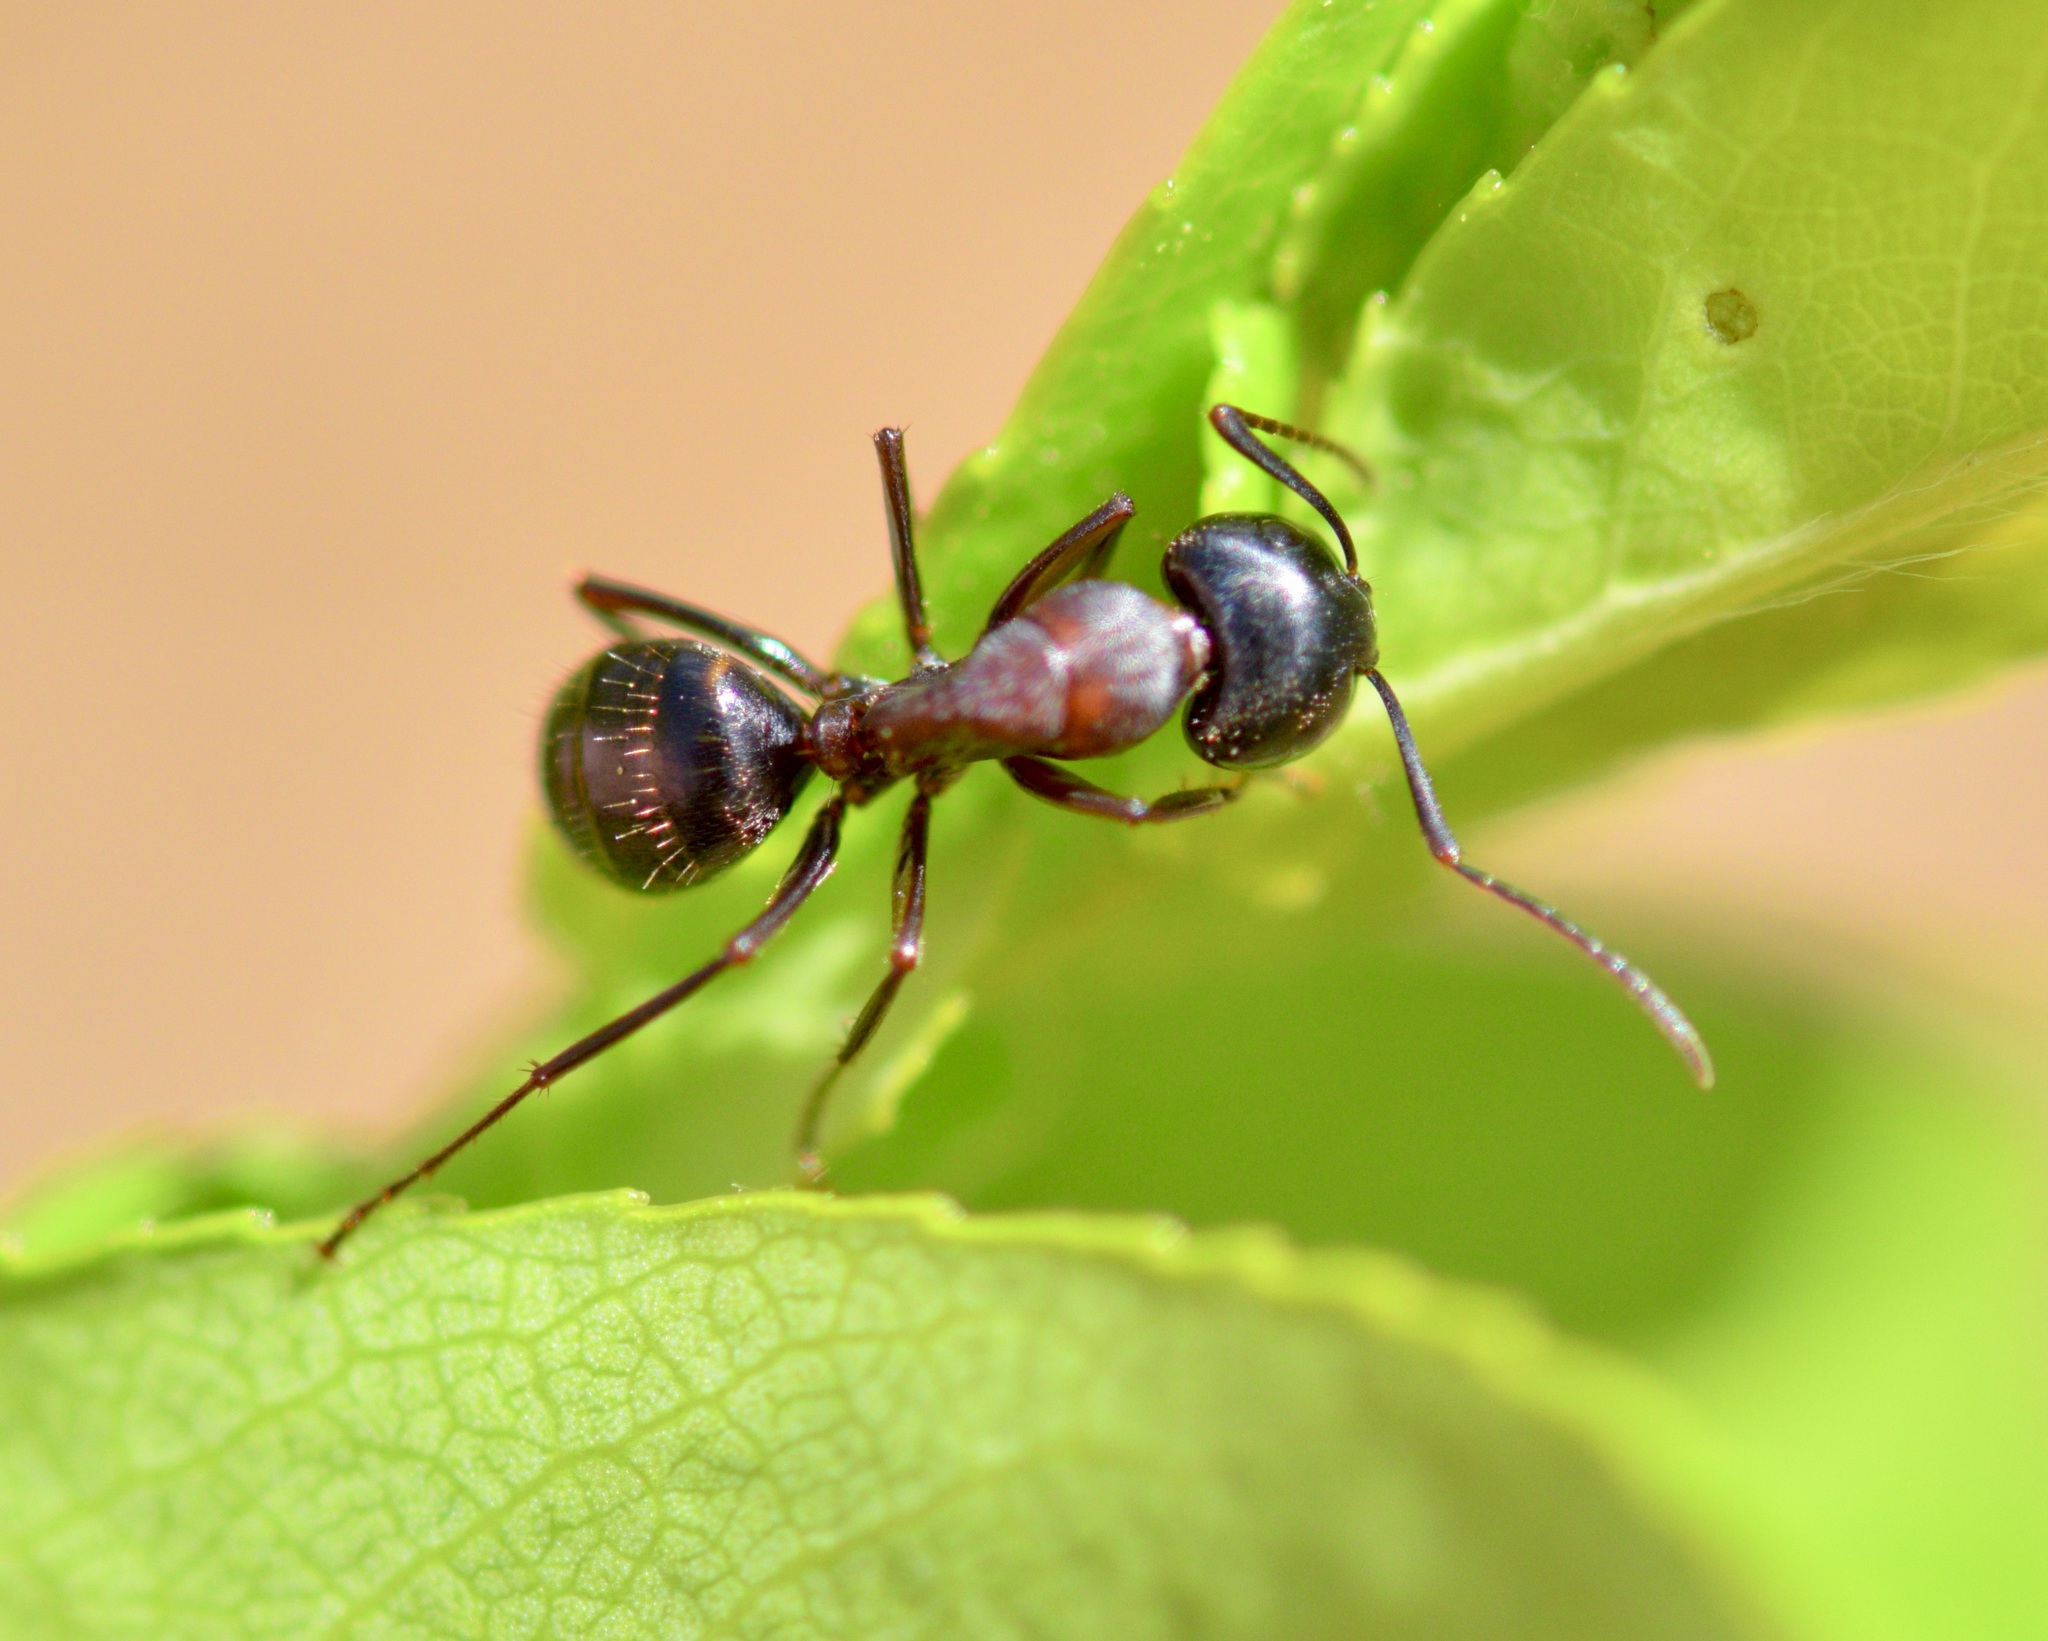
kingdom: Animalia
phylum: Arthropoda
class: Insecta
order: Hymenoptera
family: Formicidae
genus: Camponotus
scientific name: Camponotus novaeboracensis
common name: New york carpenter ant
